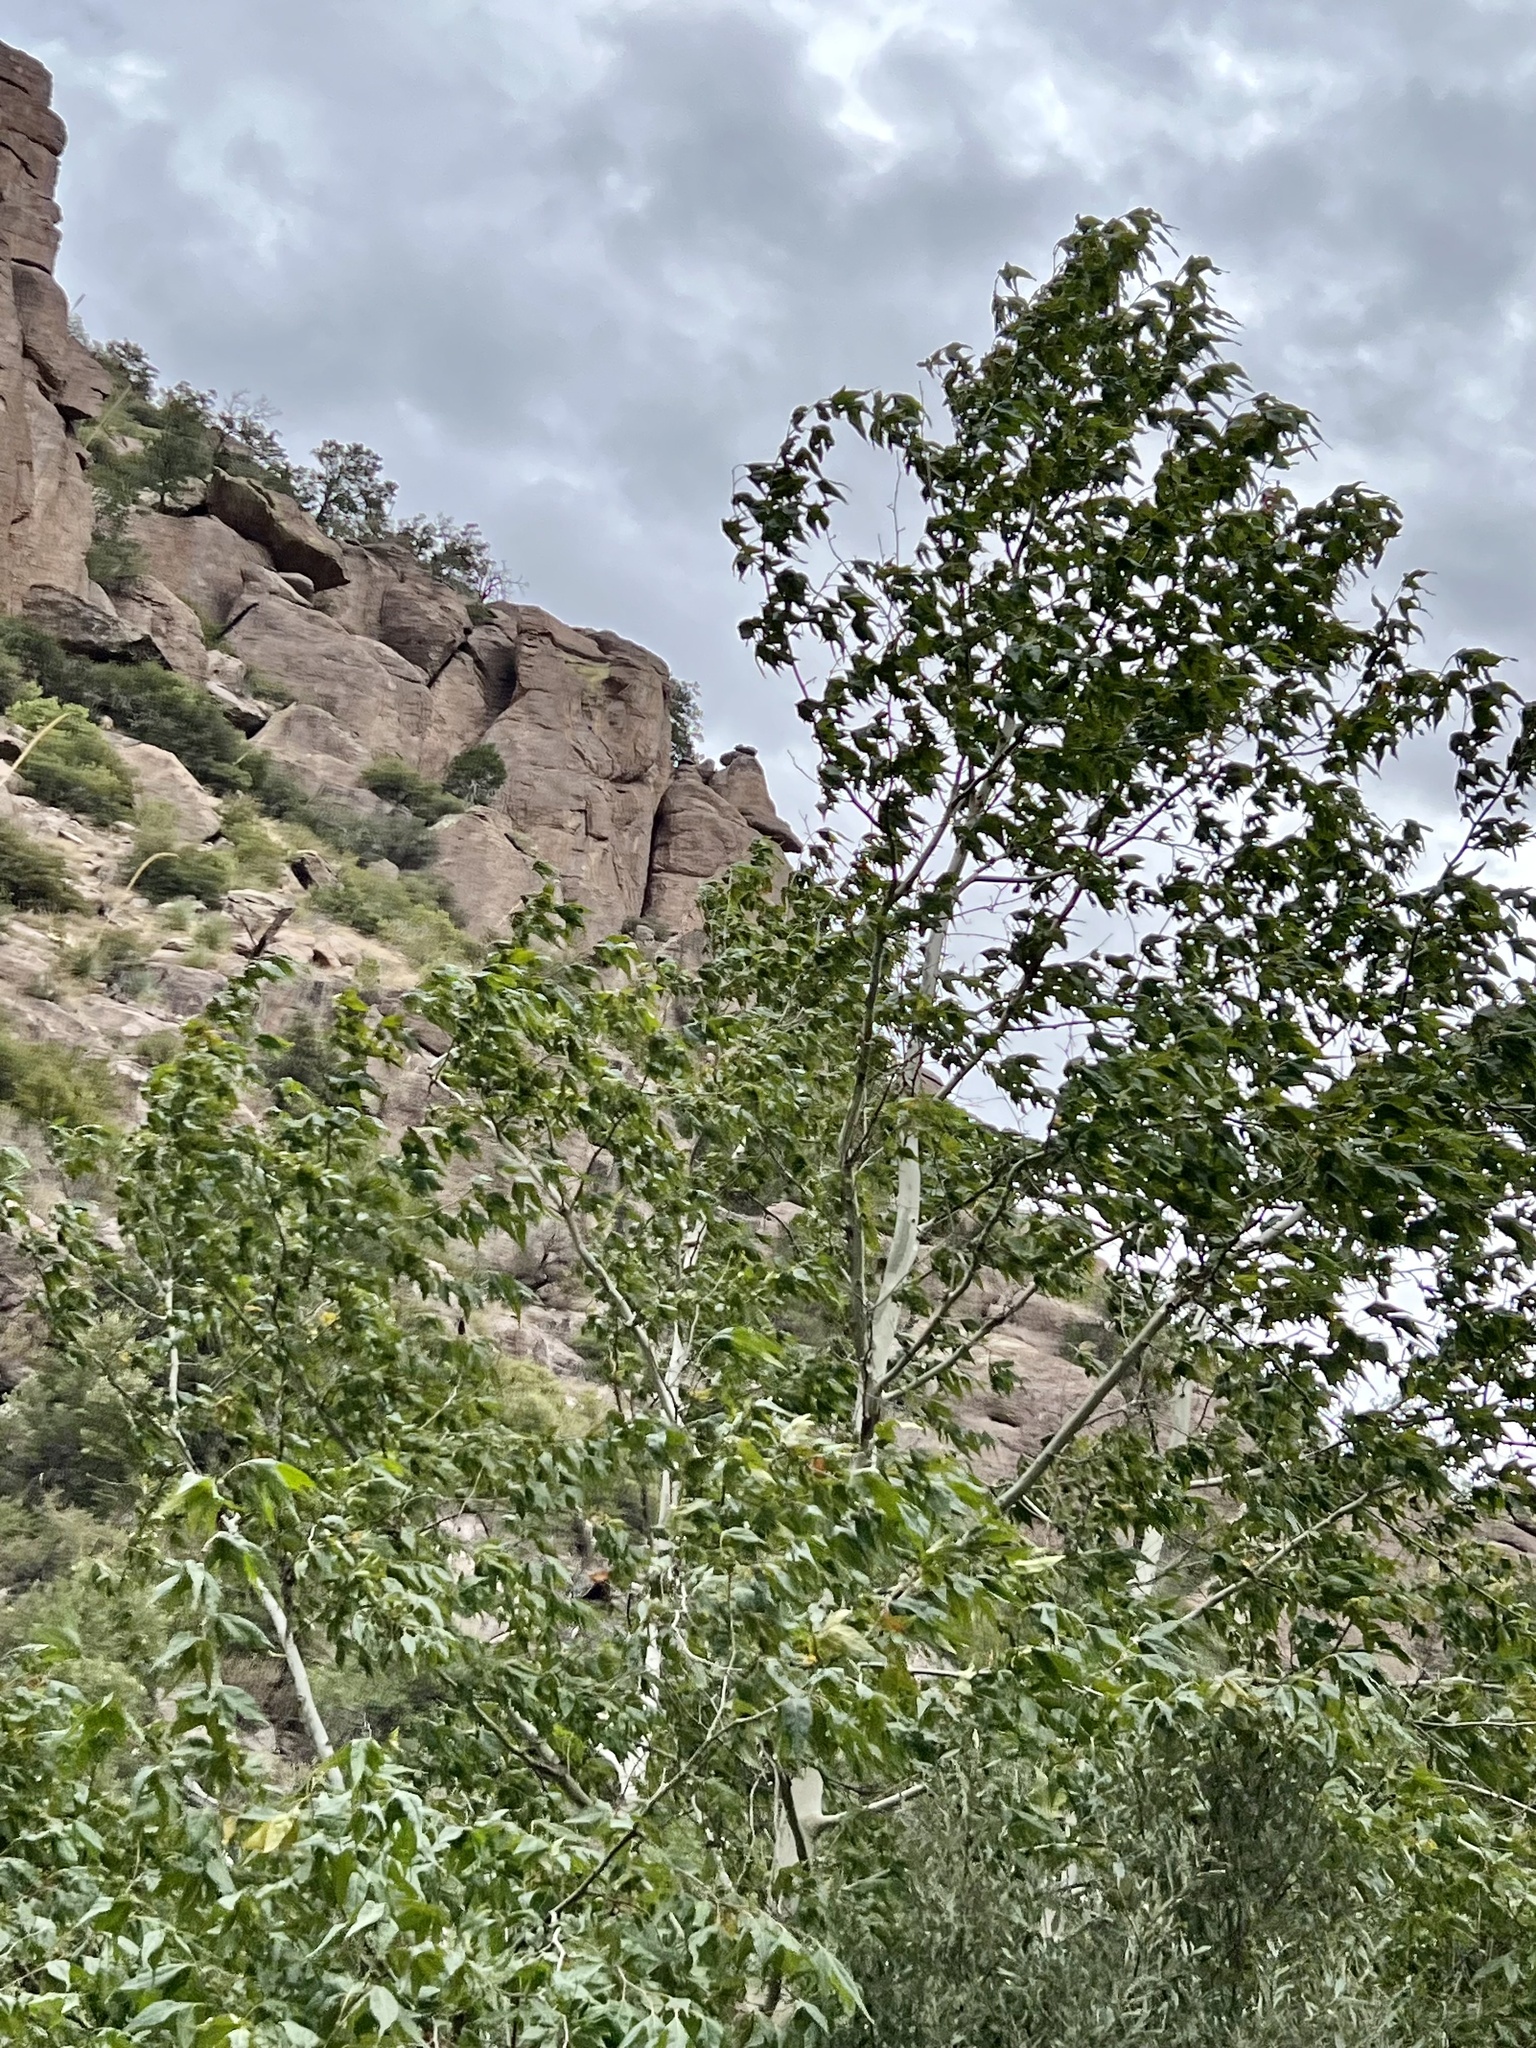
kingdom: Plantae
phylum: Tracheophyta
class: Magnoliopsida
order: Proteales
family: Platanaceae
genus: Platanus
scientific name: Platanus wrightii
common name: Arizona sycamore
